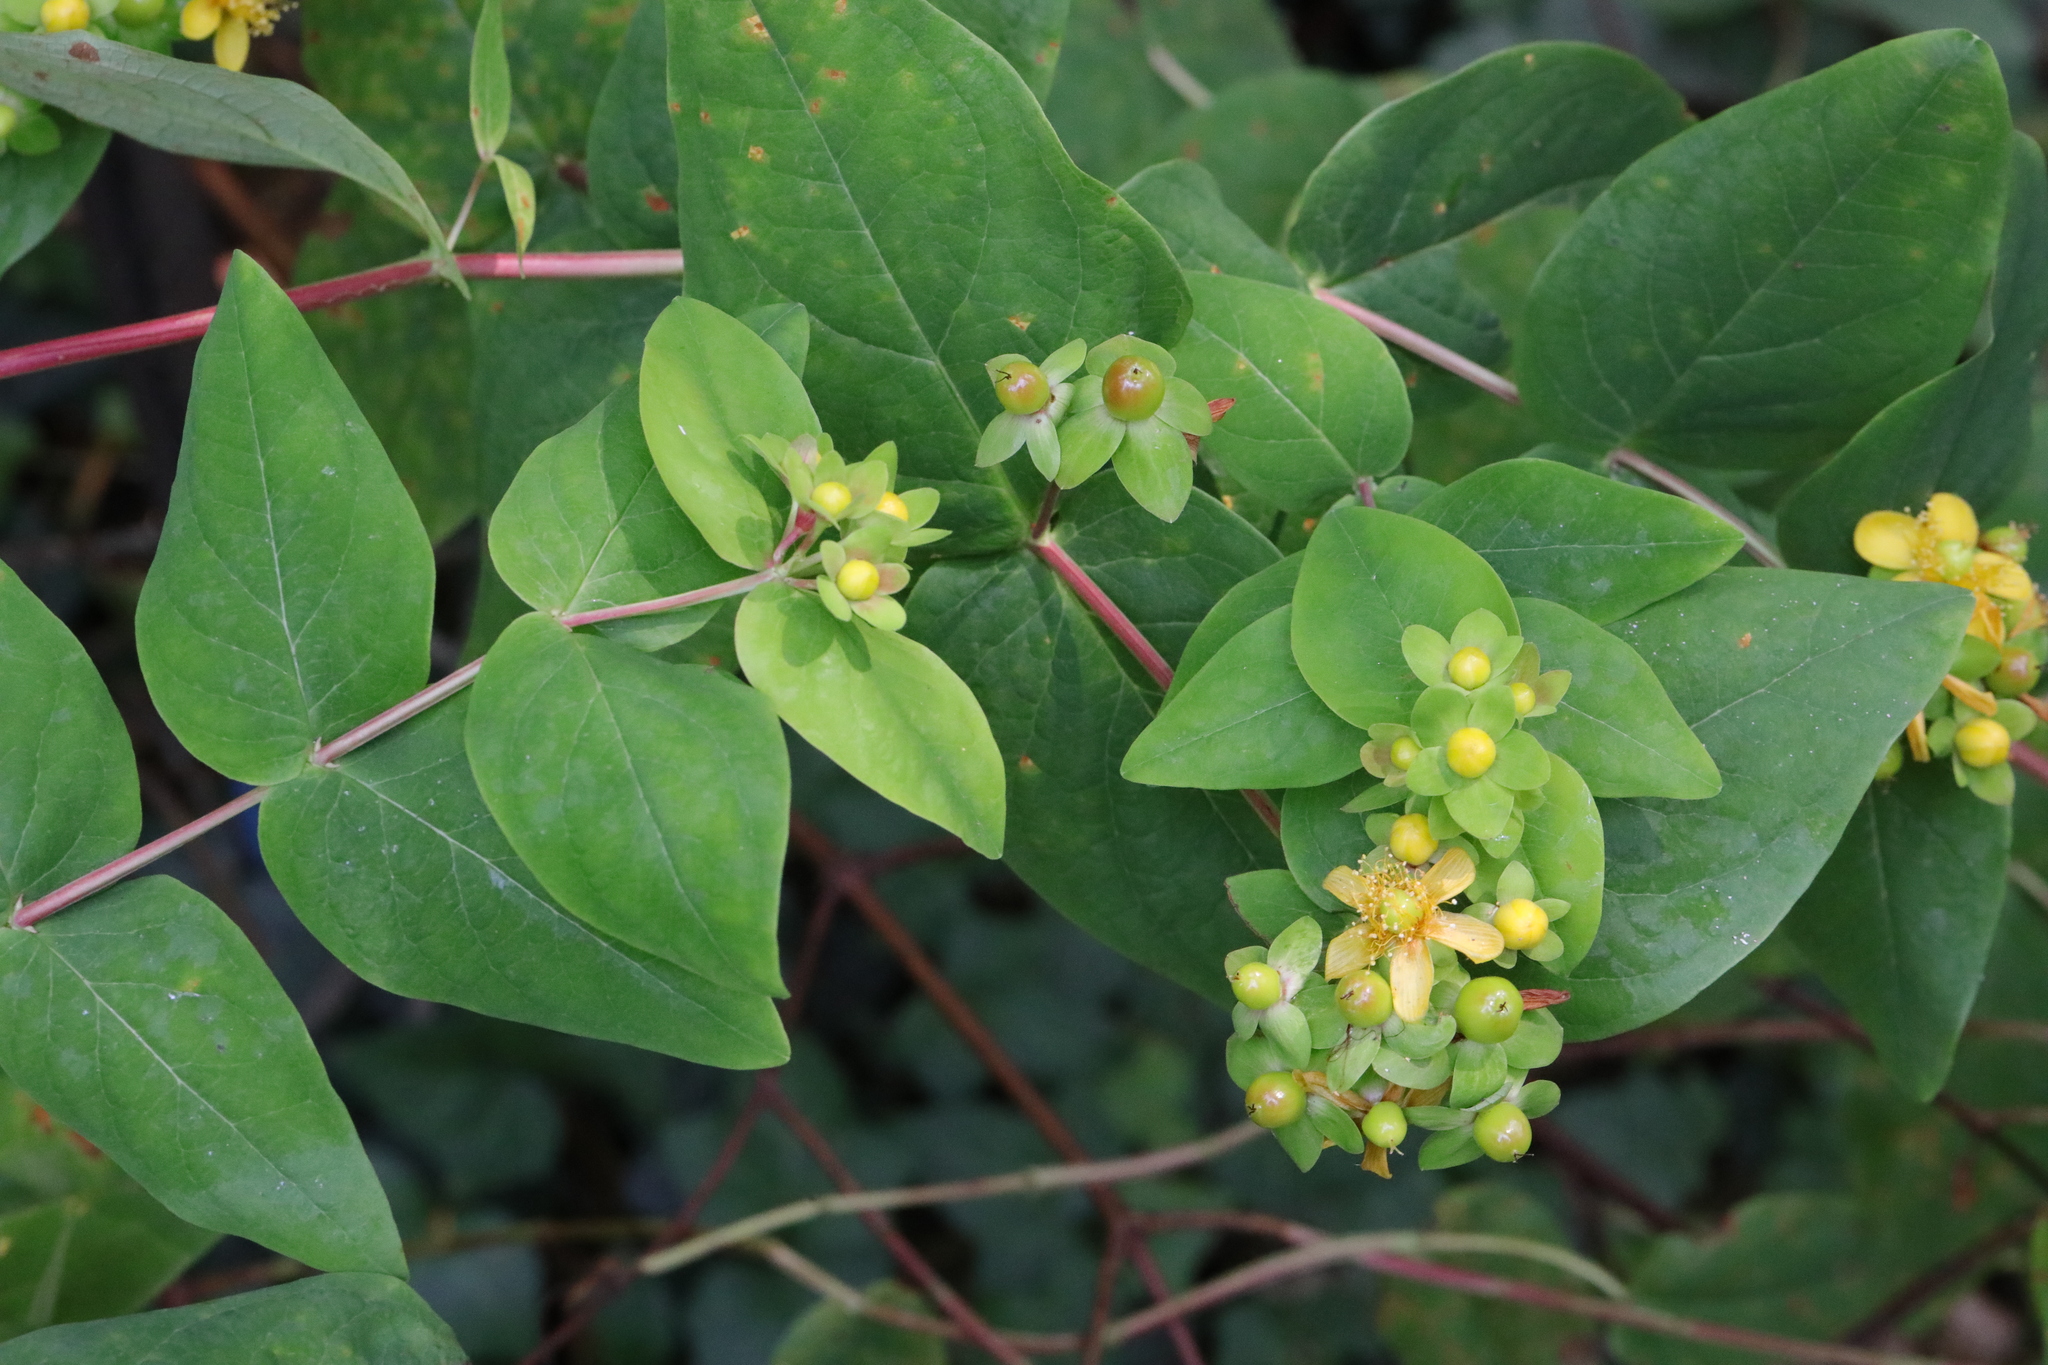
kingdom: Plantae
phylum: Tracheophyta
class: Magnoliopsida
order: Malpighiales
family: Hypericaceae
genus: Hypericum
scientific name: Hypericum androsaemum
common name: Sweet-amber
